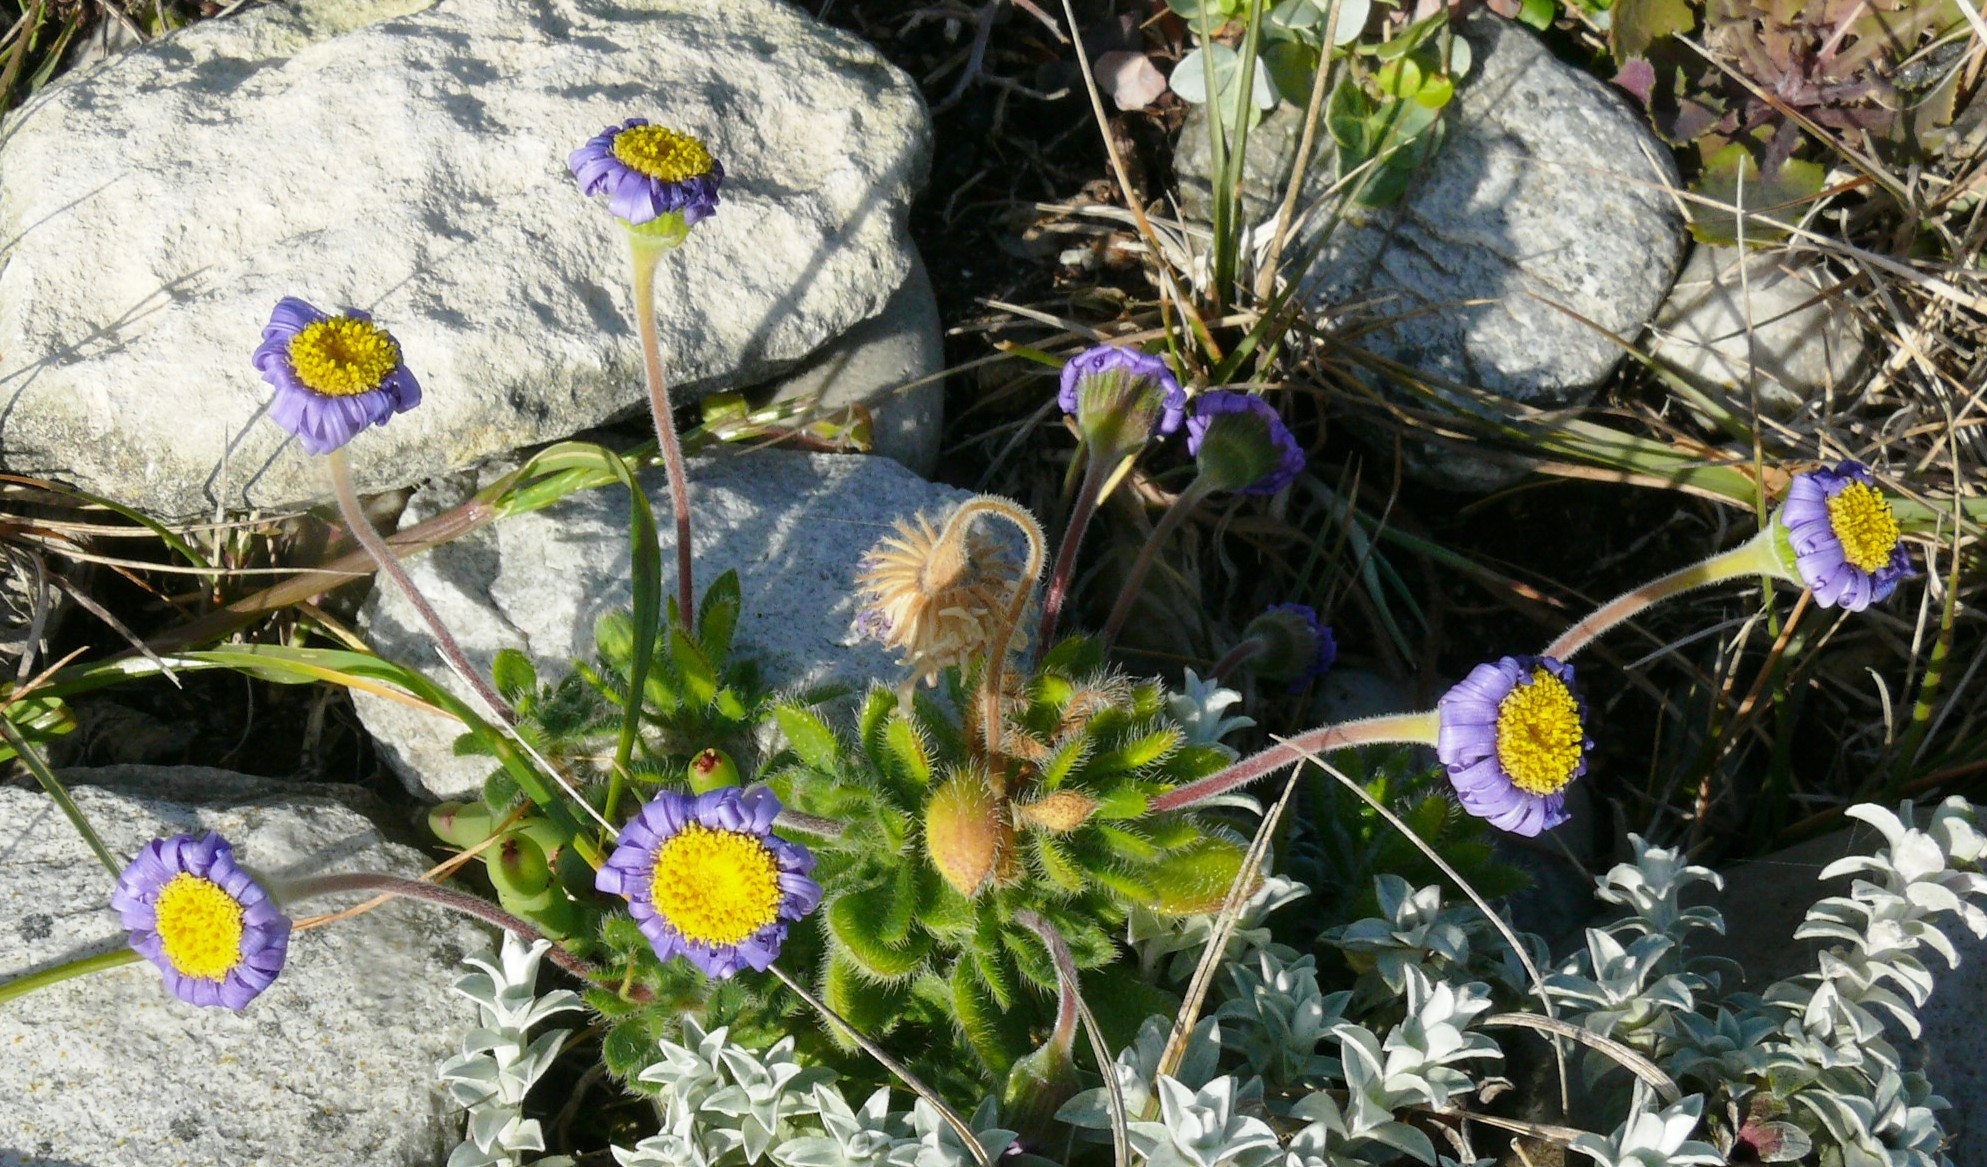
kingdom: Plantae
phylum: Tracheophyta
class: Magnoliopsida
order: Asterales
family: Asteraceae
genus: Felicia
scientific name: Felicia amoena
